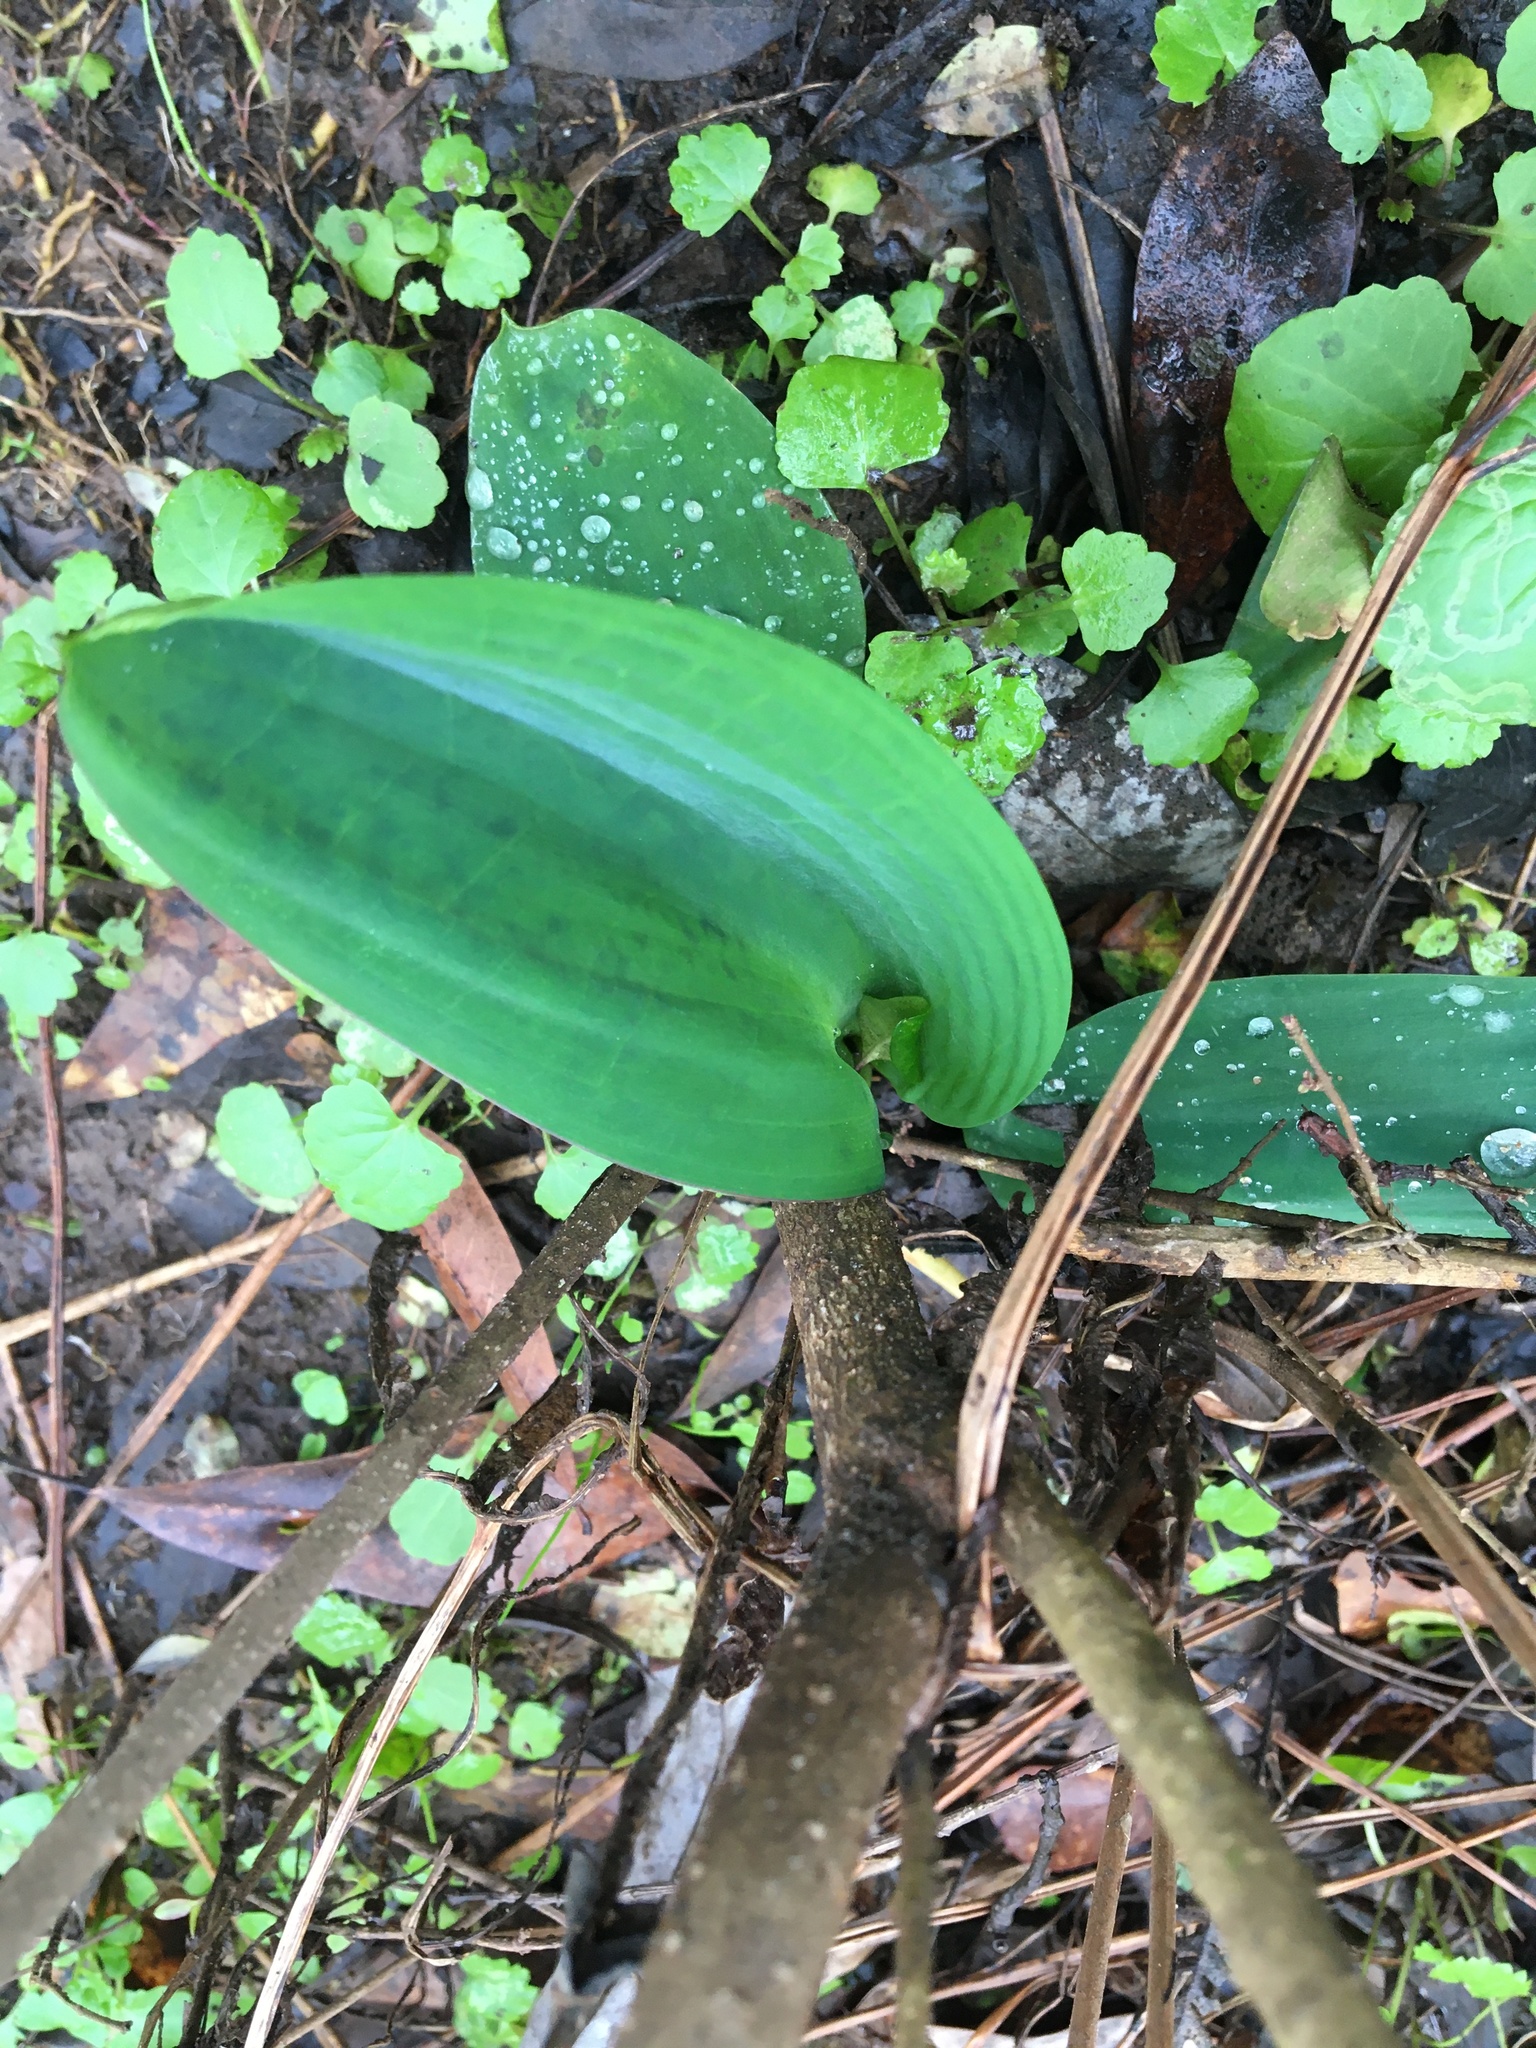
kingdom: Plantae
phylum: Tracheophyta
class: Liliopsida
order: Alismatales
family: Araceae
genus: Orontium
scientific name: Orontium aquaticum
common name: Golden-club
